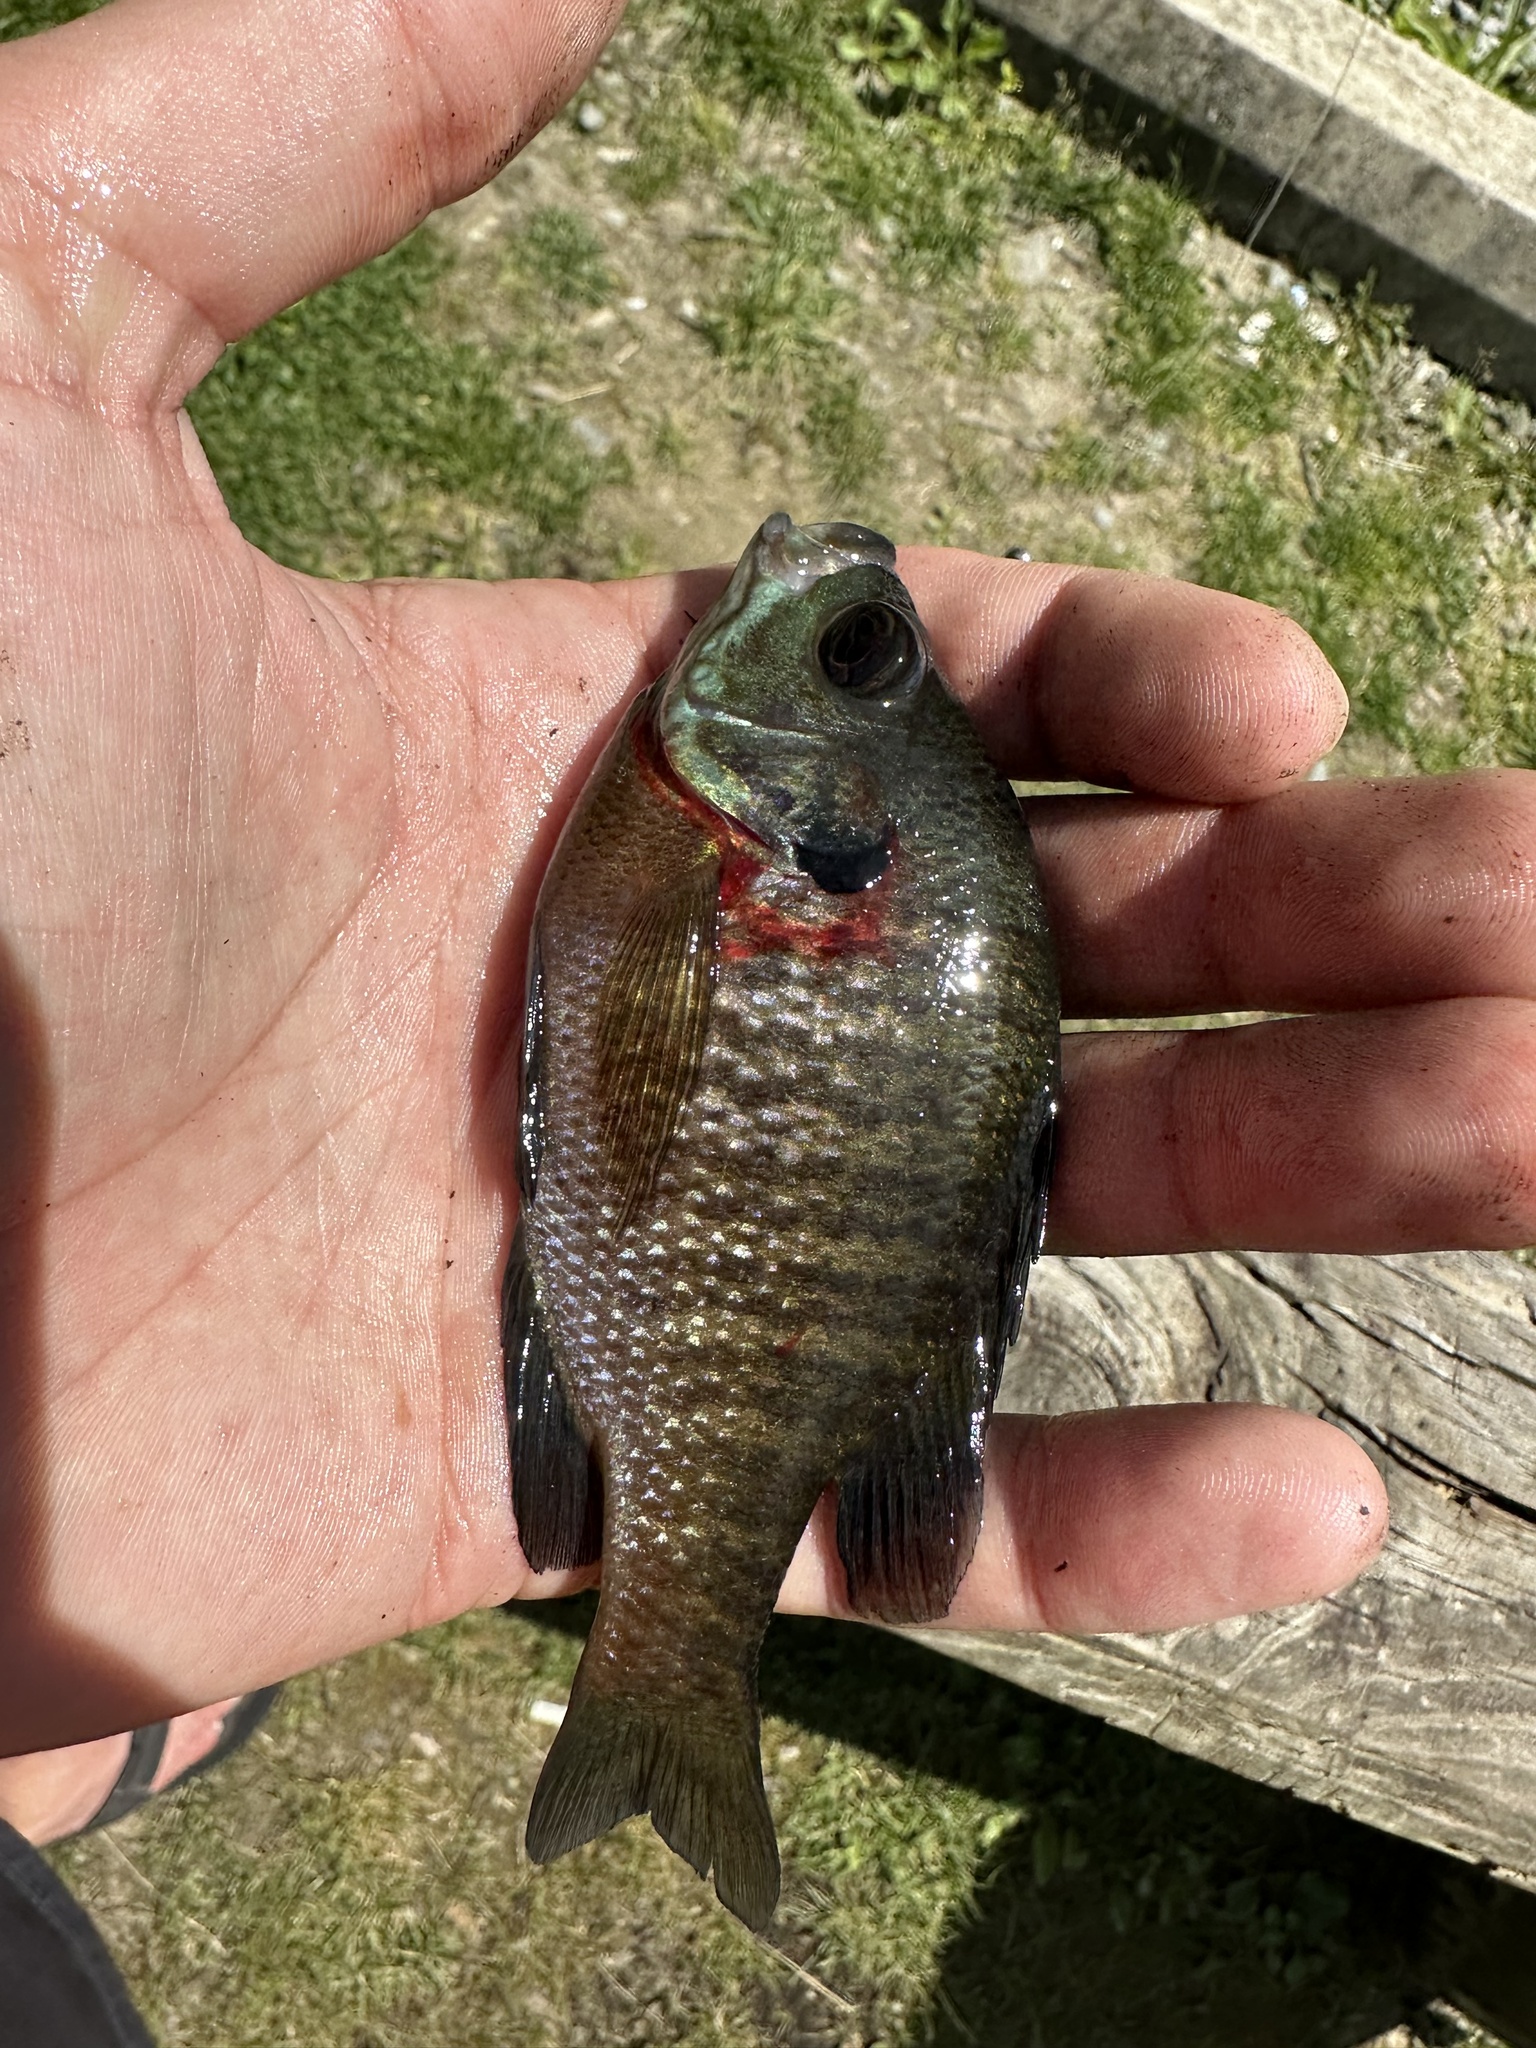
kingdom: Animalia
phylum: Chordata
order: Perciformes
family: Centrarchidae
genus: Lepomis
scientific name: Lepomis macrochirus
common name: Bluegill
